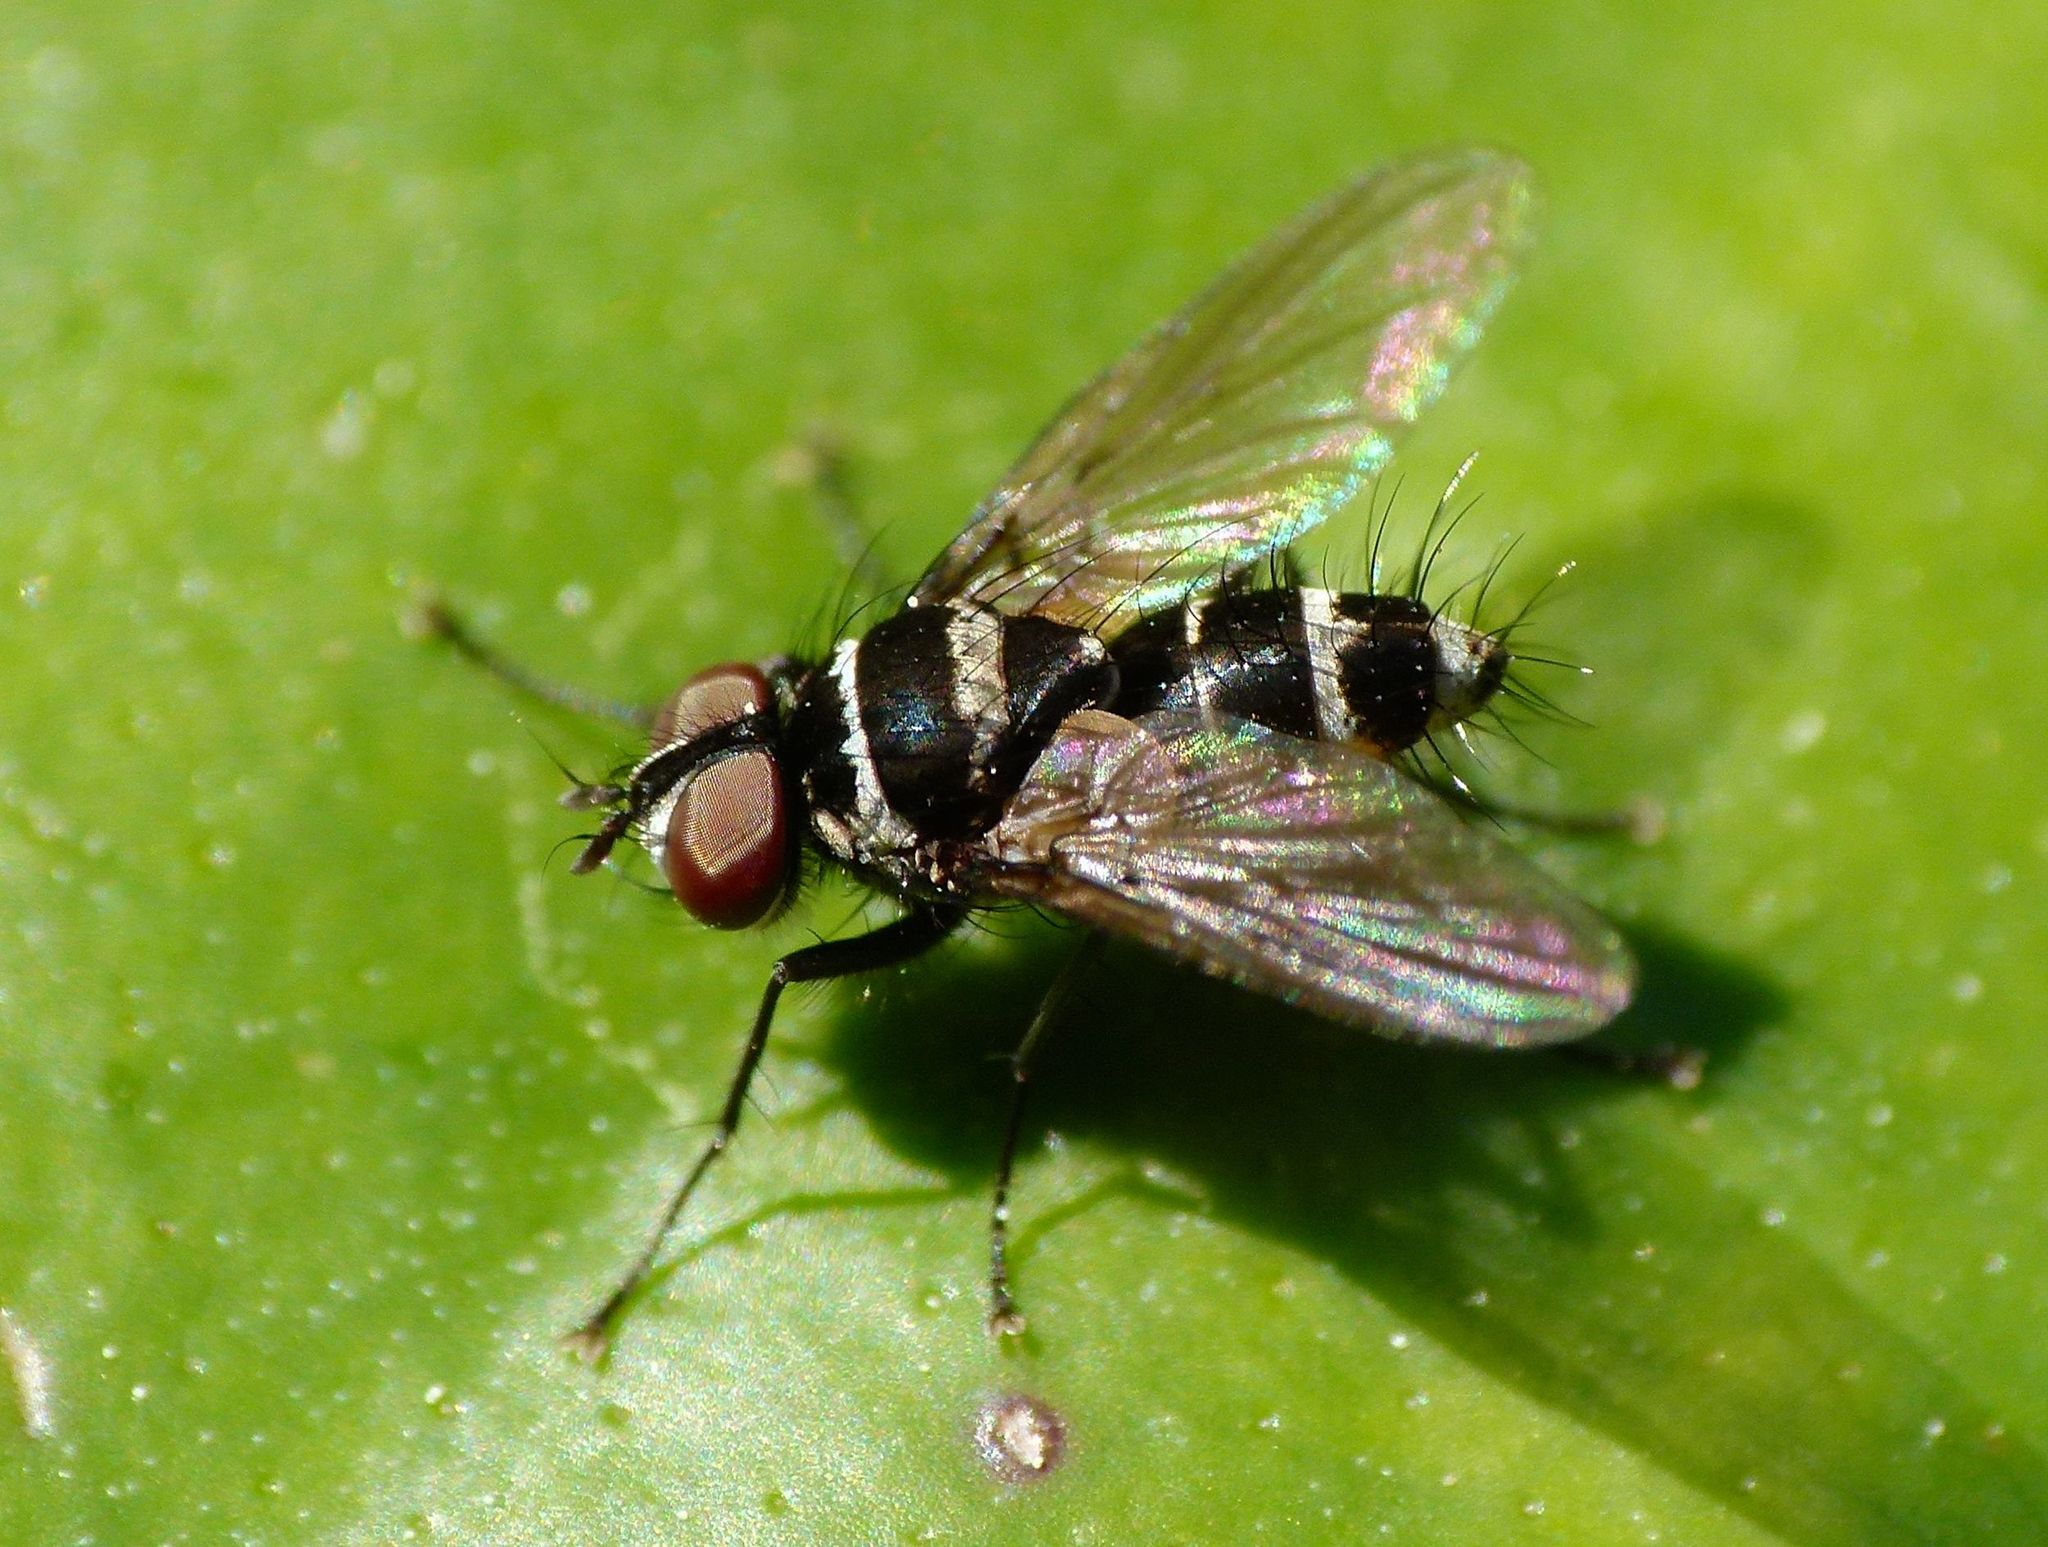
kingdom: Animalia
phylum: Arthropoda
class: Insecta
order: Diptera
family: Tachinidae
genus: Trigonospila
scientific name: Trigonospila brevifacies
